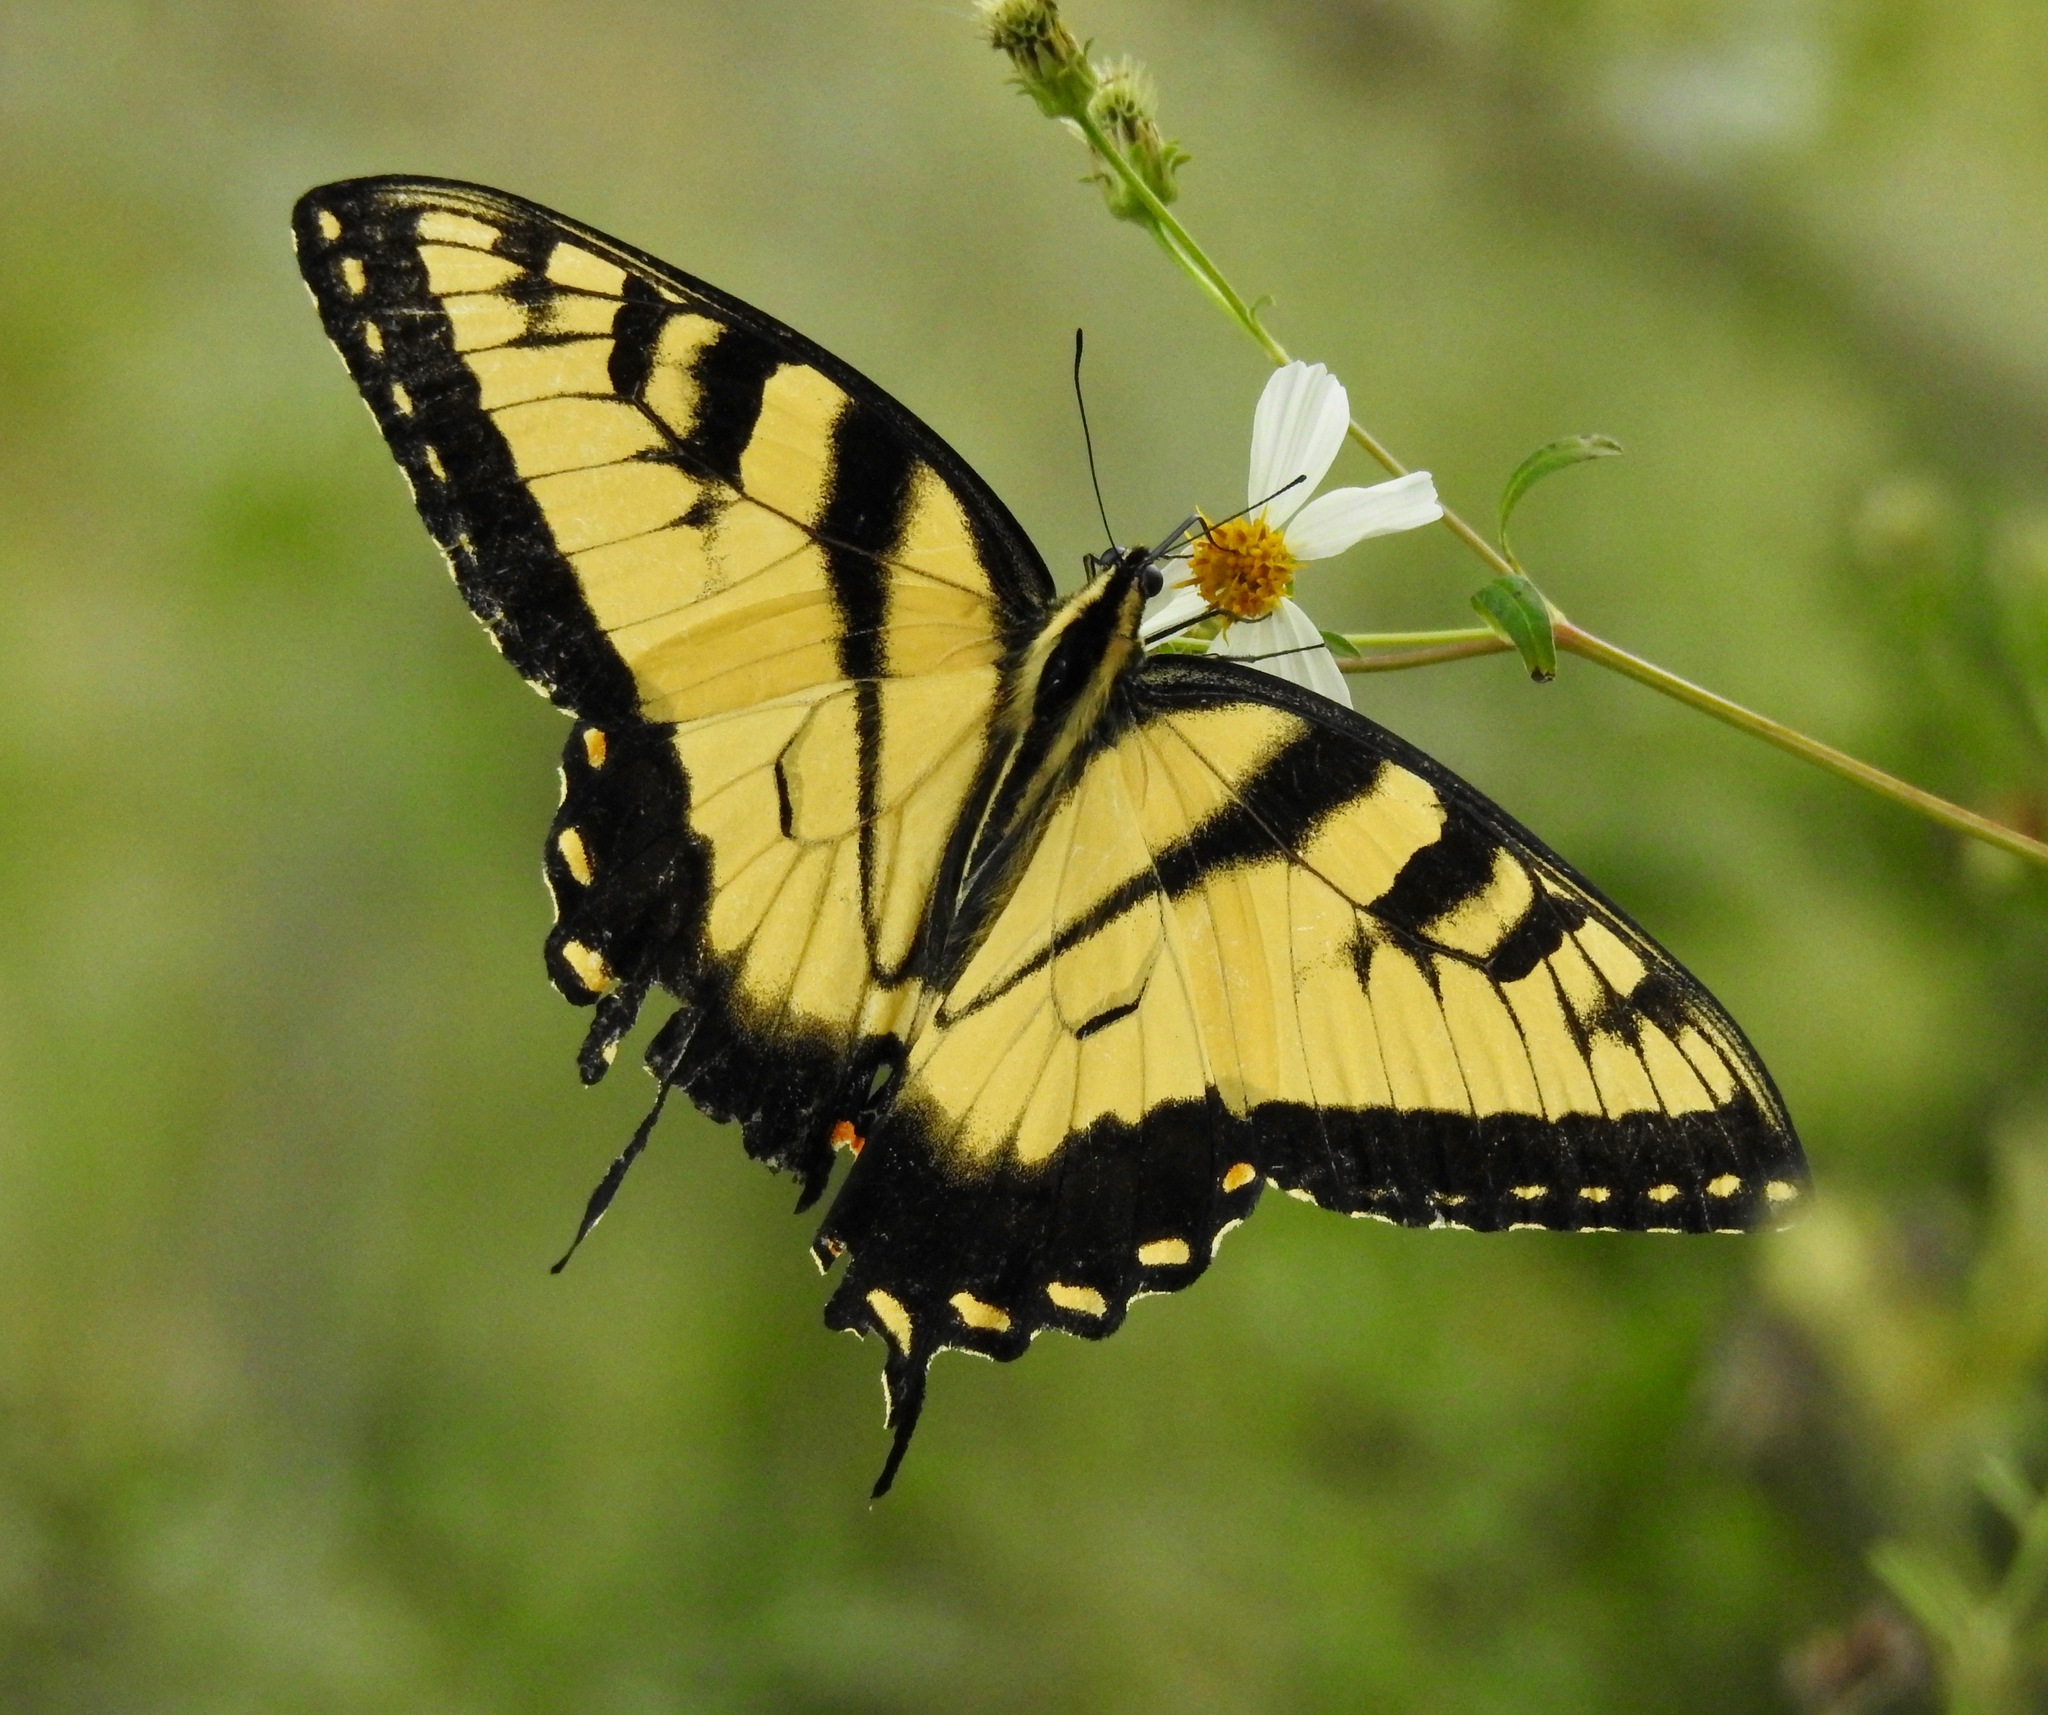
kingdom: Animalia
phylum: Arthropoda
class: Insecta
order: Lepidoptera
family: Papilionidae
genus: Papilio
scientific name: Papilio glaucus
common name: Tiger swallowtail
